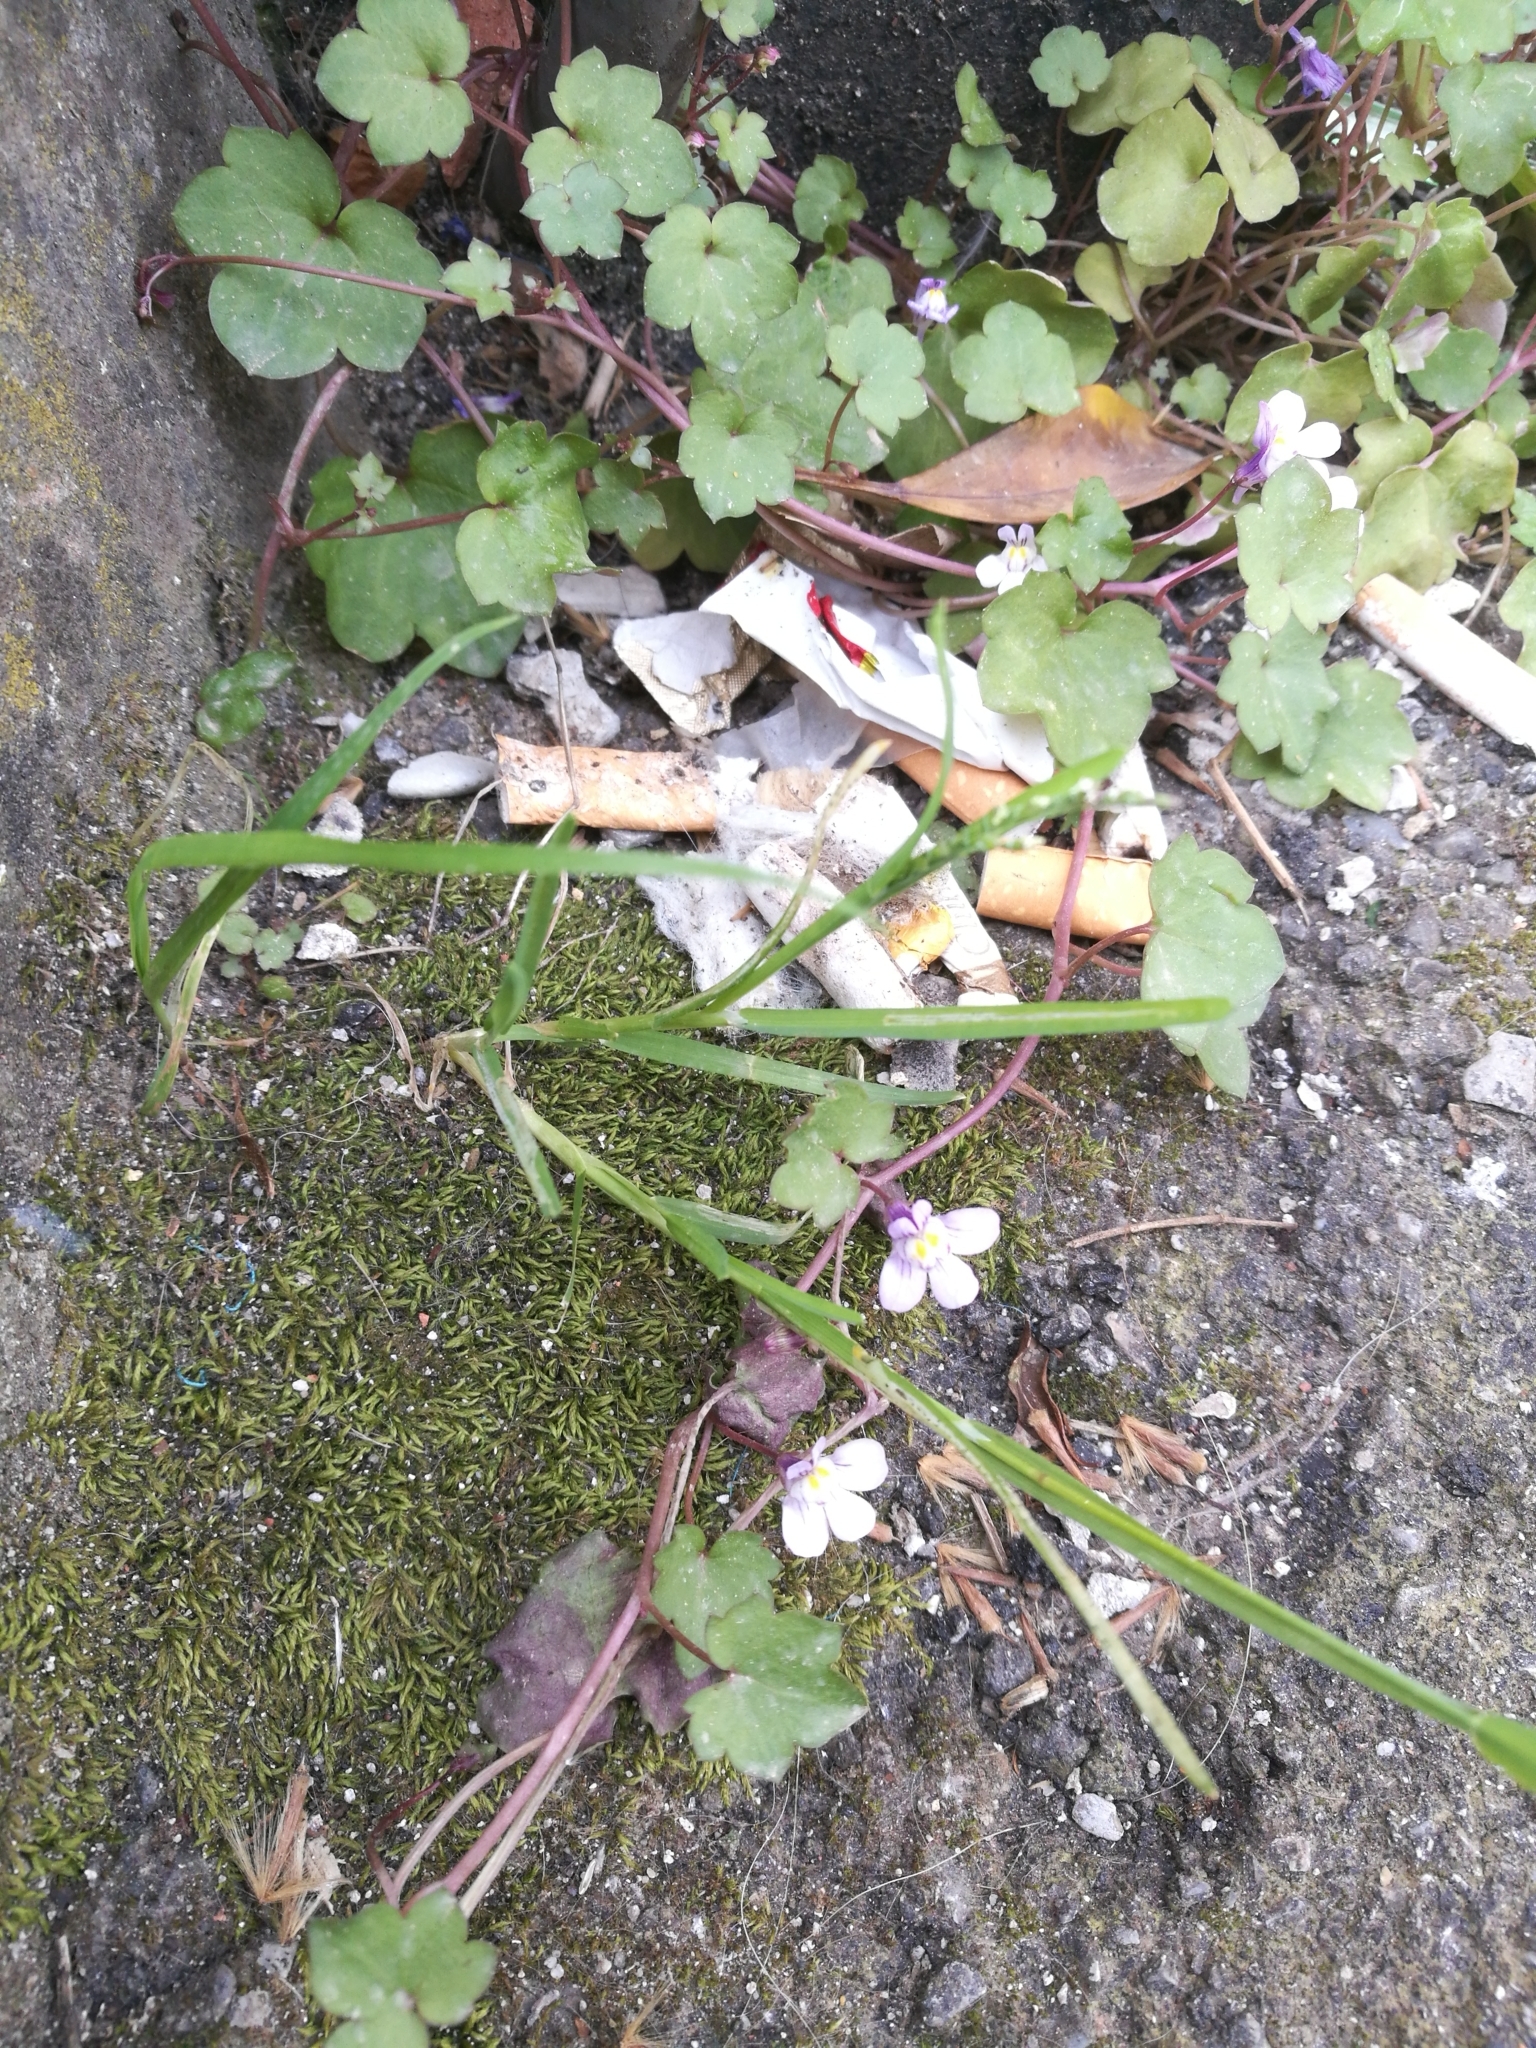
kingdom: Plantae
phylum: Tracheophyta
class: Magnoliopsida
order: Lamiales
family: Plantaginaceae
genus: Cymbalaria
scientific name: Cymbalaria muralis
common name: Ivy-leaved toadflax
